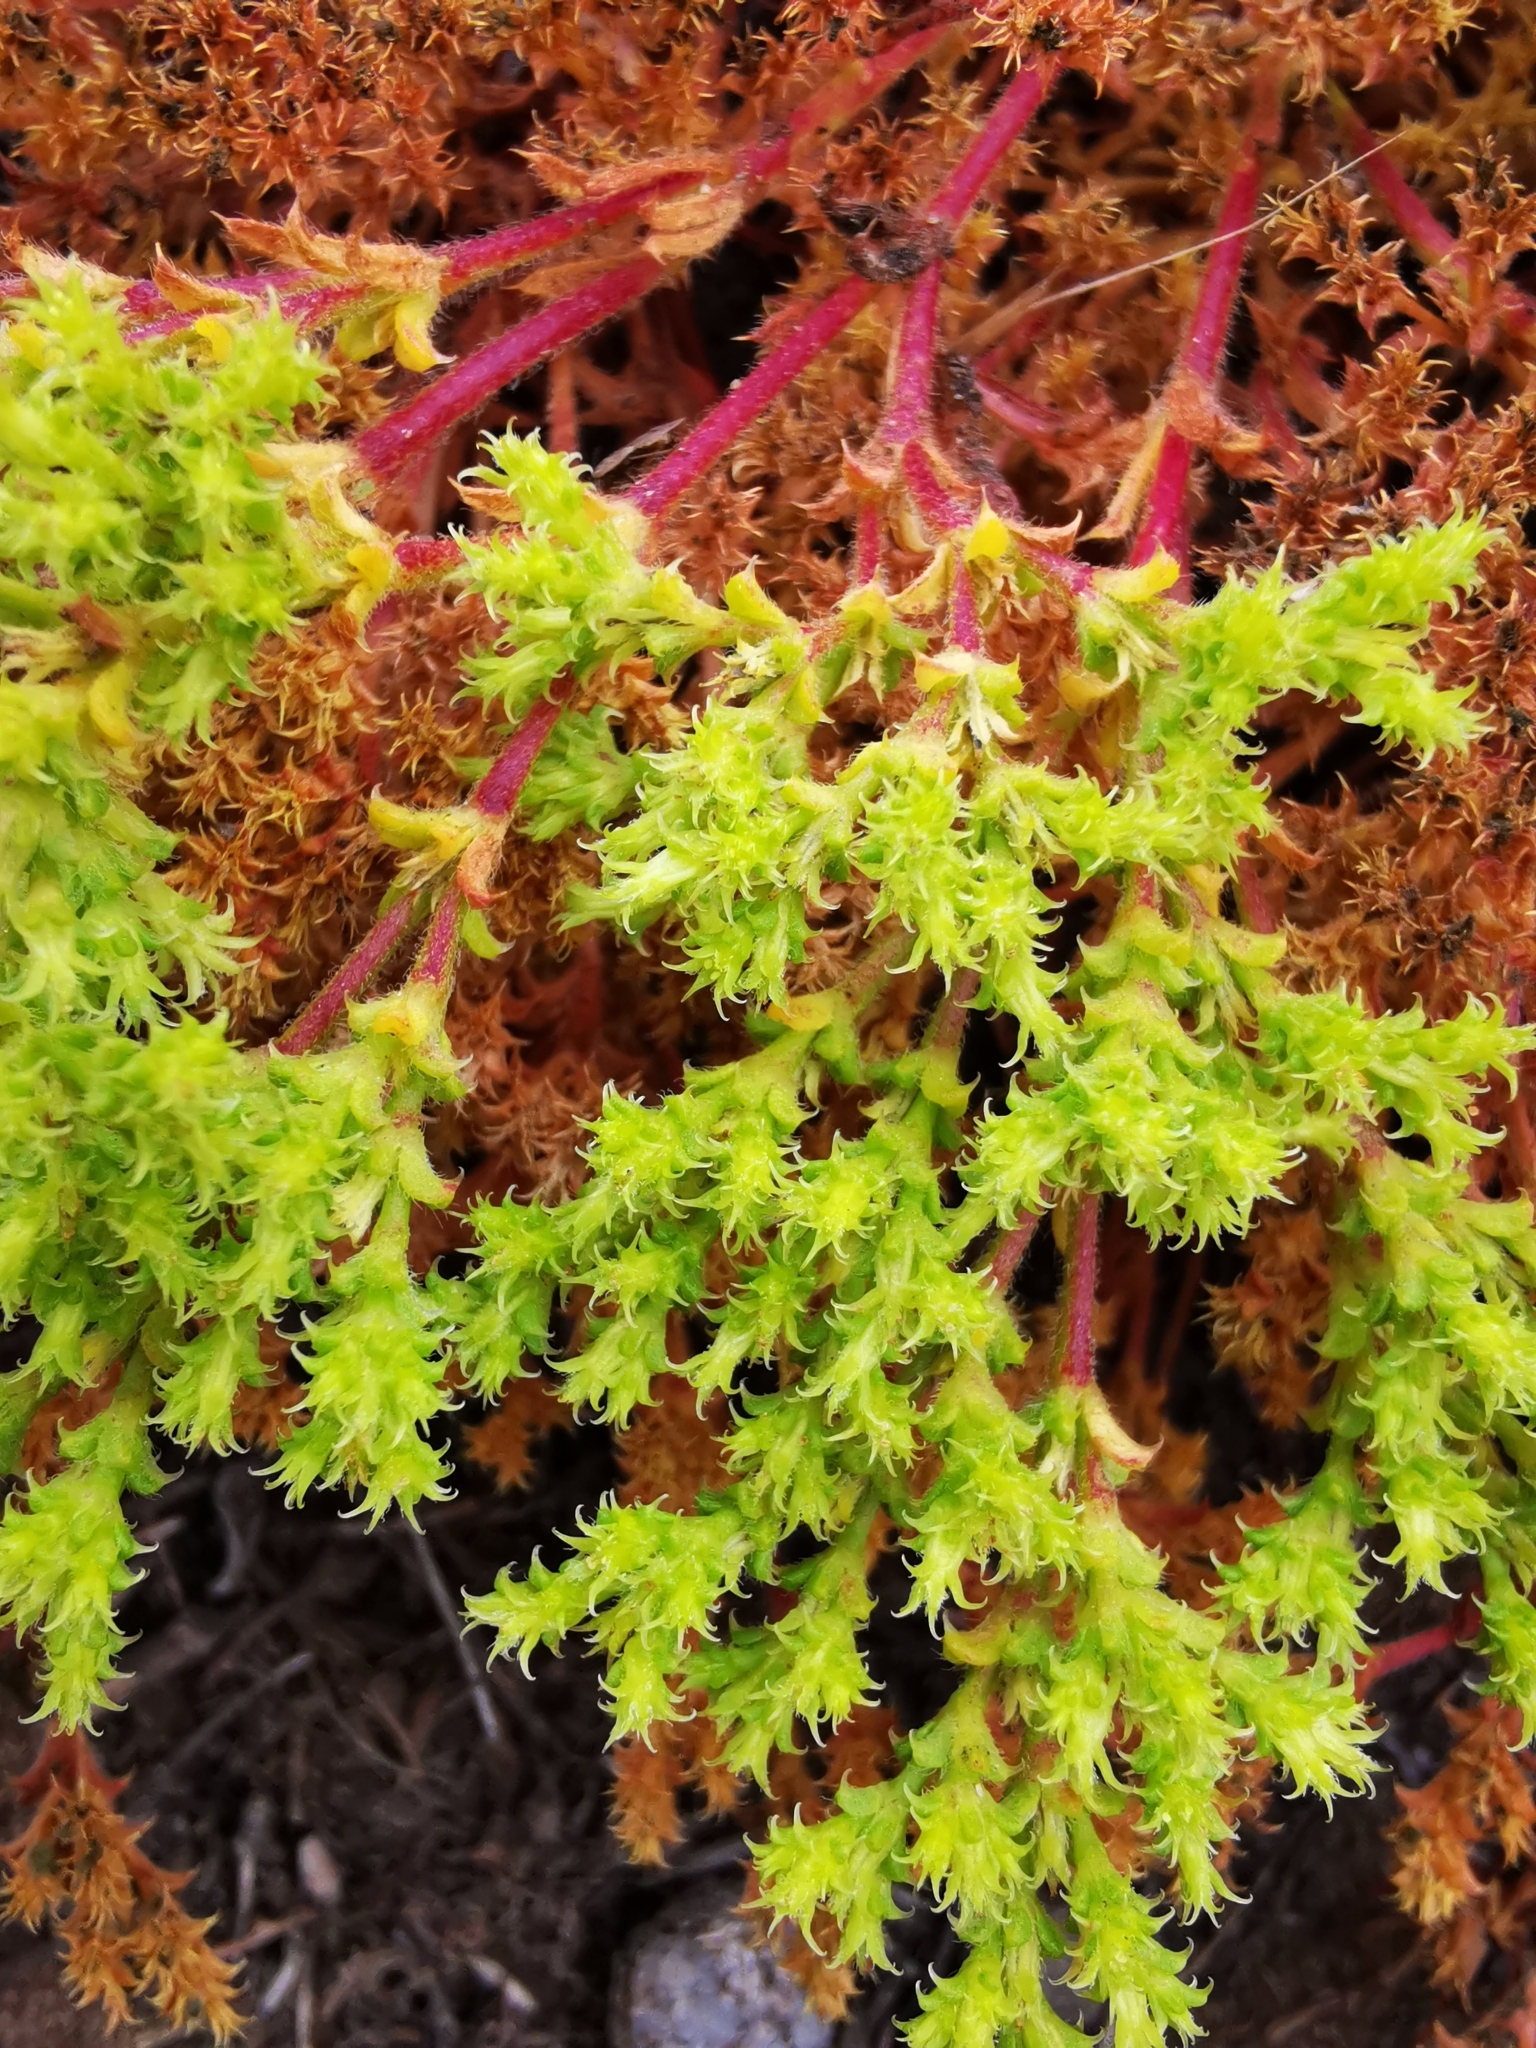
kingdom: Plantae
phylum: Tracheophyta
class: Magnoliopsida
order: Caryophyllales
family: Polygonaceae
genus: Lastarriaea
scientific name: Lastarriaea chilensis
